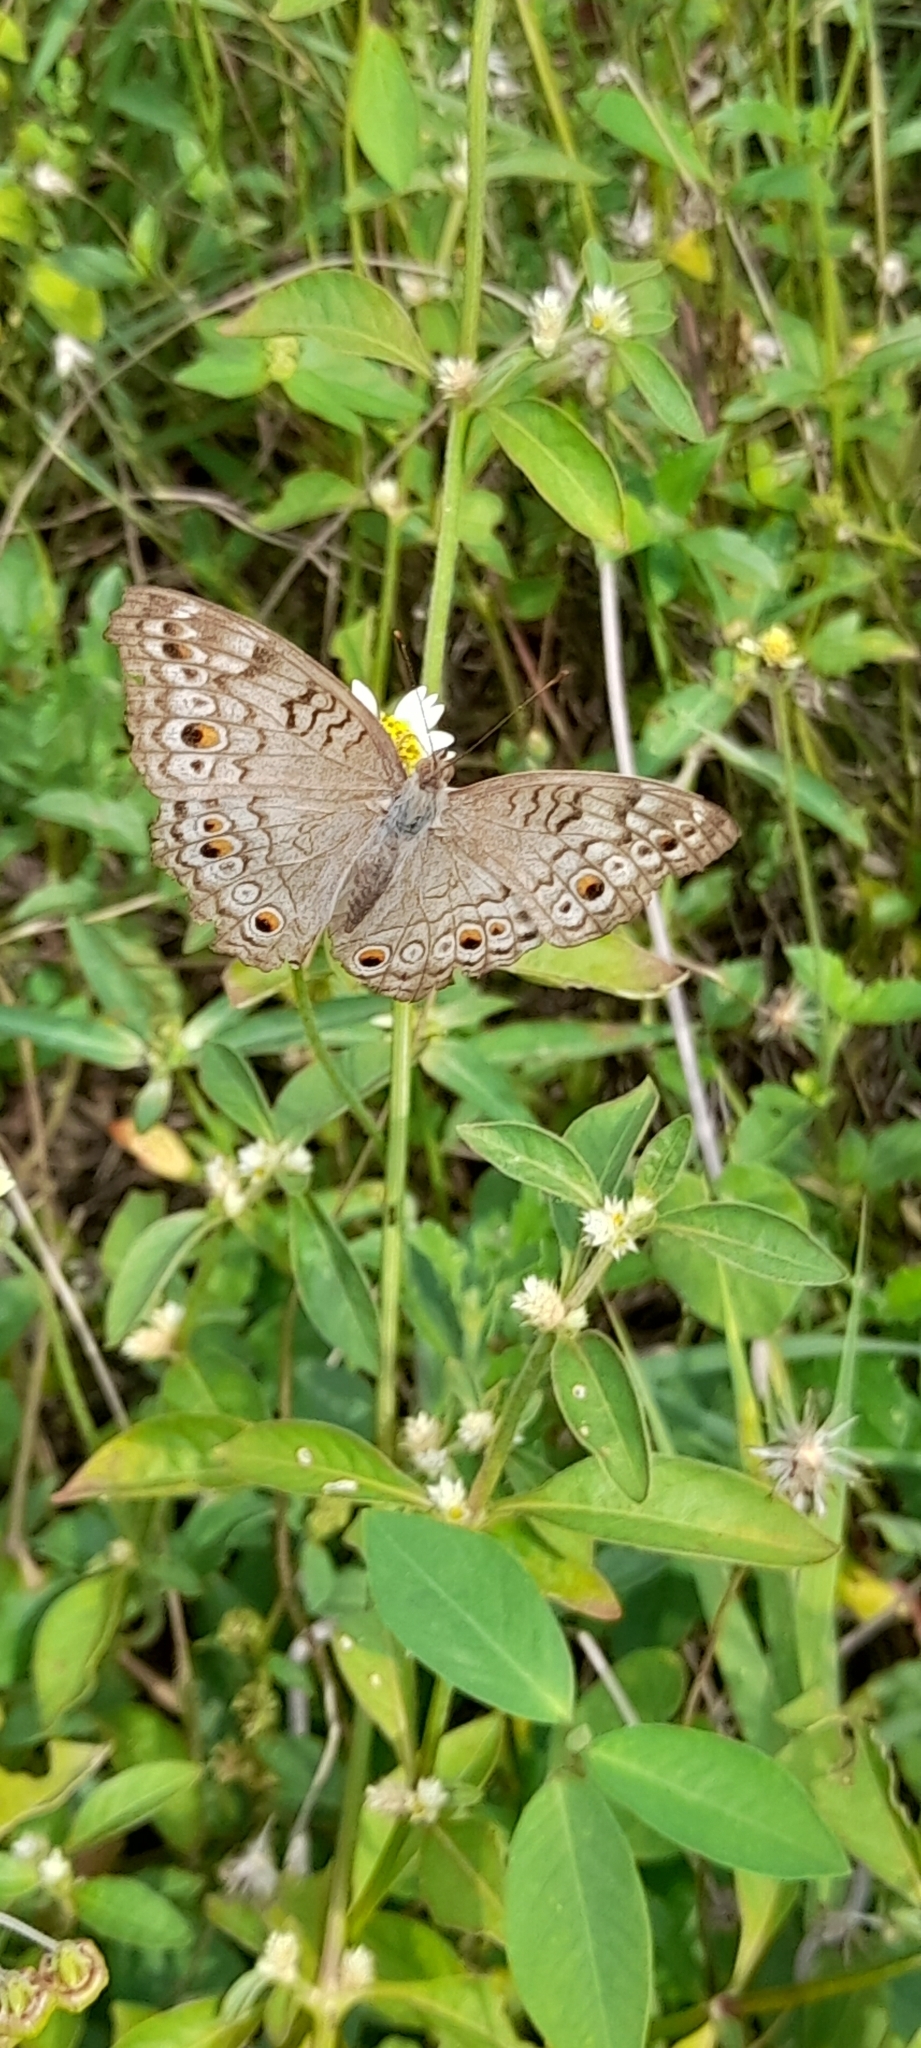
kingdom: Animalia
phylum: Arthropoda
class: Insecta
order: Lepidoptera
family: Nymphalidae
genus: Junonia
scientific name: Junonia atlites
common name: Grey pansy
